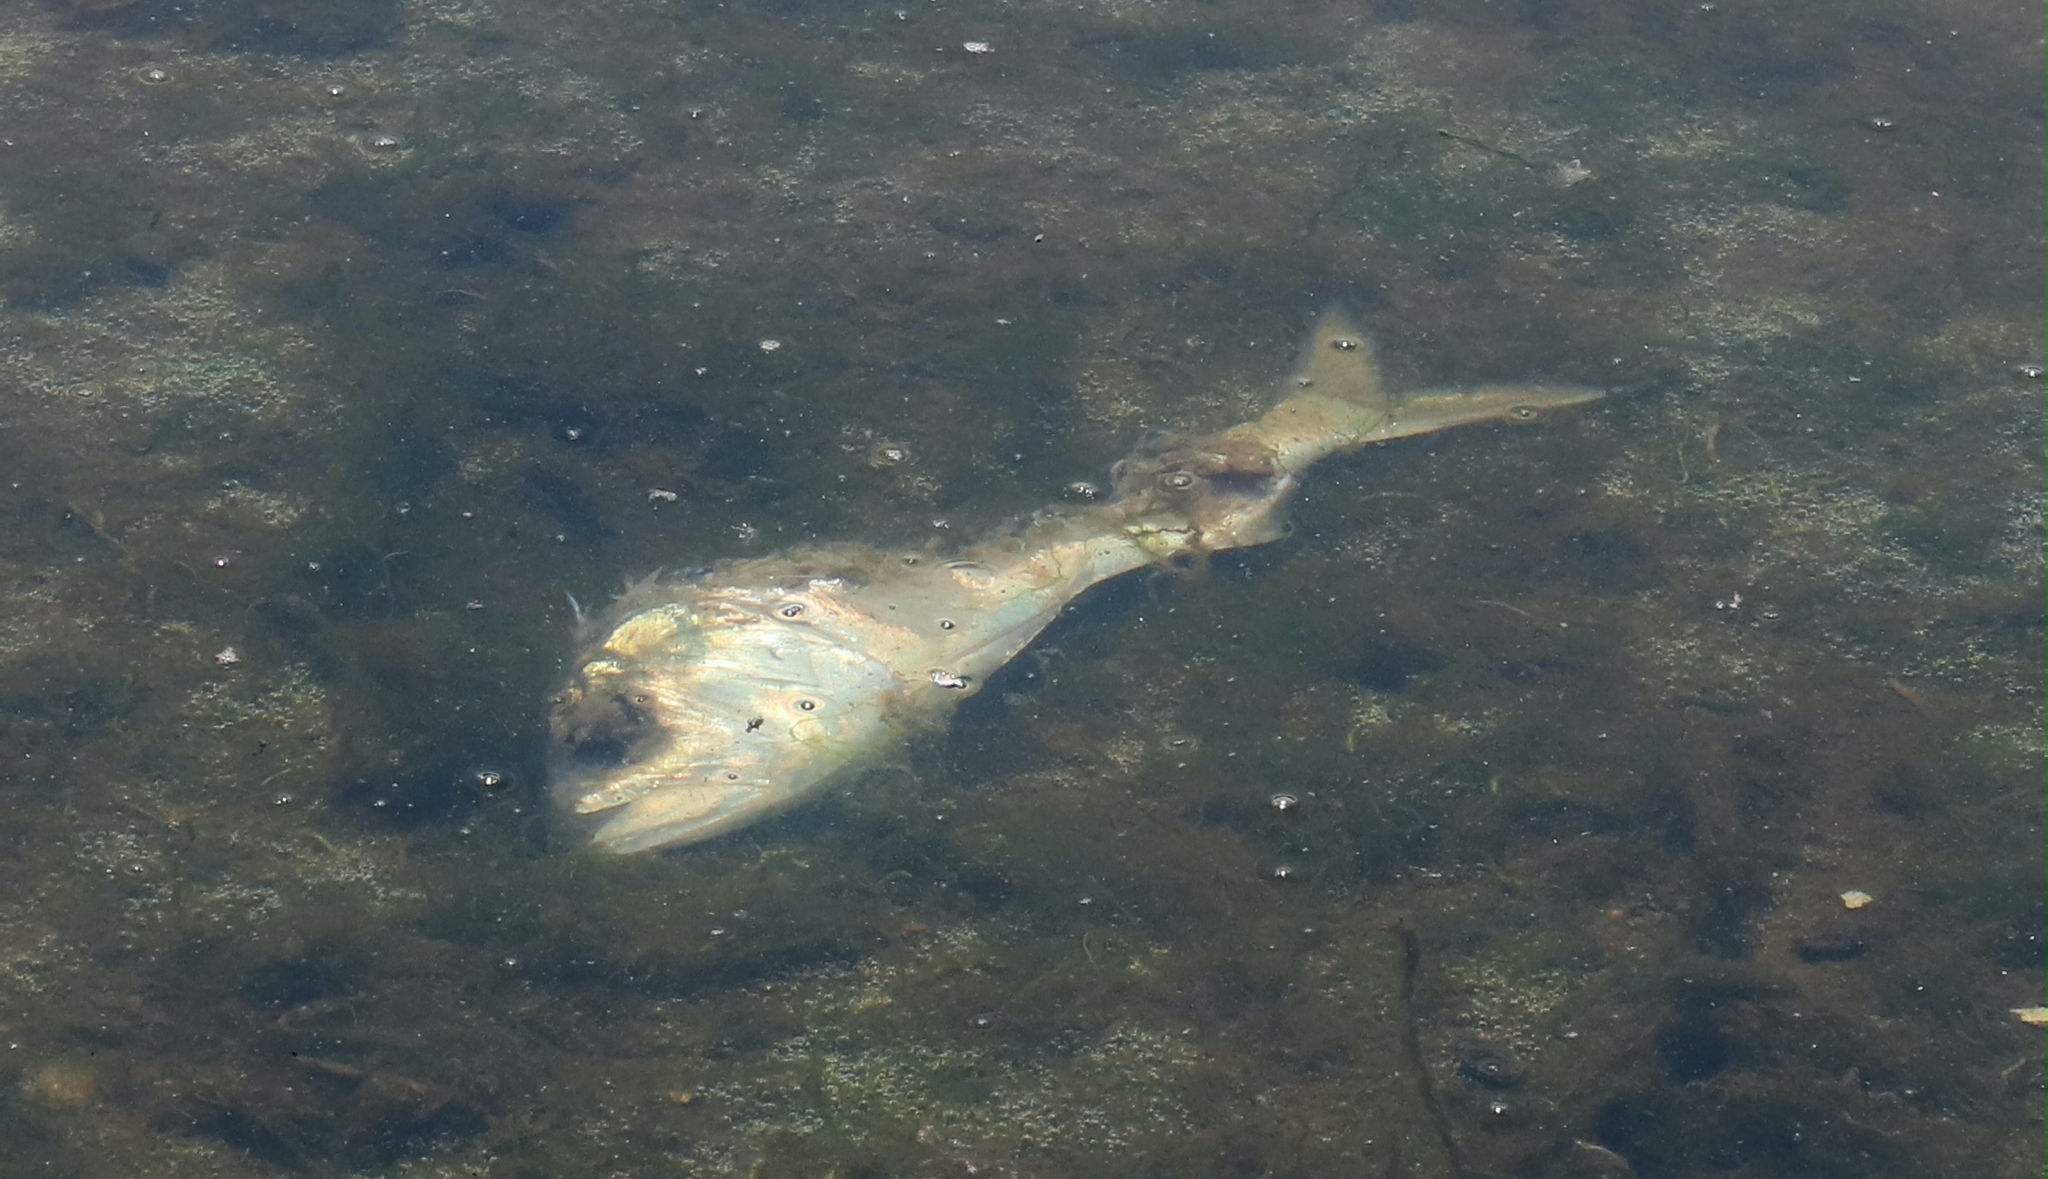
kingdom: Animalia
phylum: Chordata
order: Clupeiformes
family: Clupeidae
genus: Brevoortia
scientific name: Brevoortia tyrannus
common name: Atlantic menhaden
